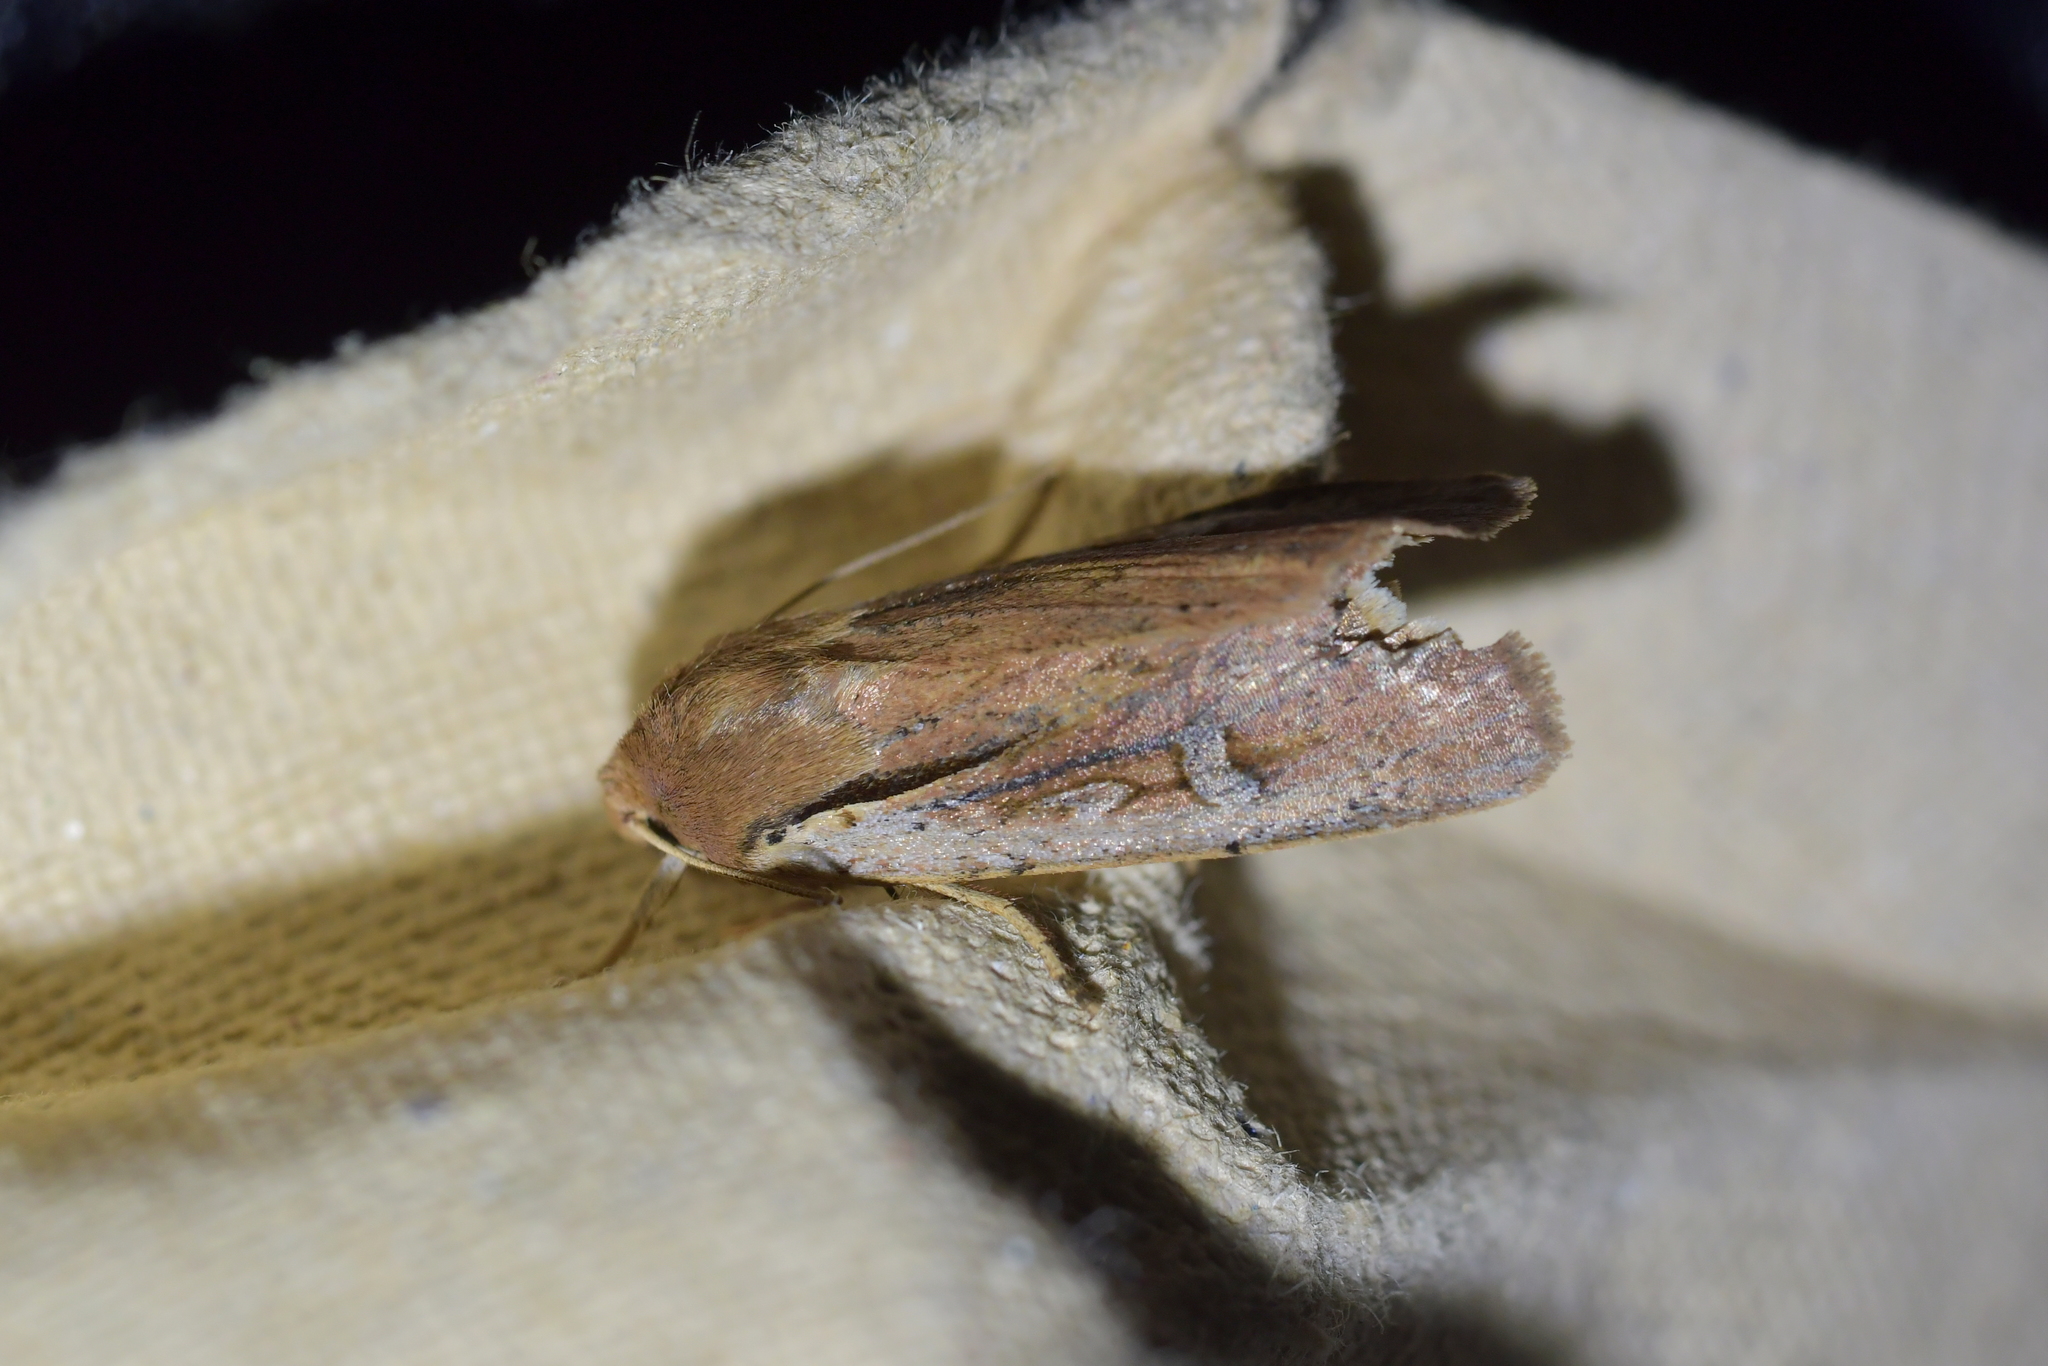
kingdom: Animalia
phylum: Arthropoda
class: Insecta
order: Lepidoptera
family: Noctuidae
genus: Ichneutica
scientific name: Ichneutica atristriga
